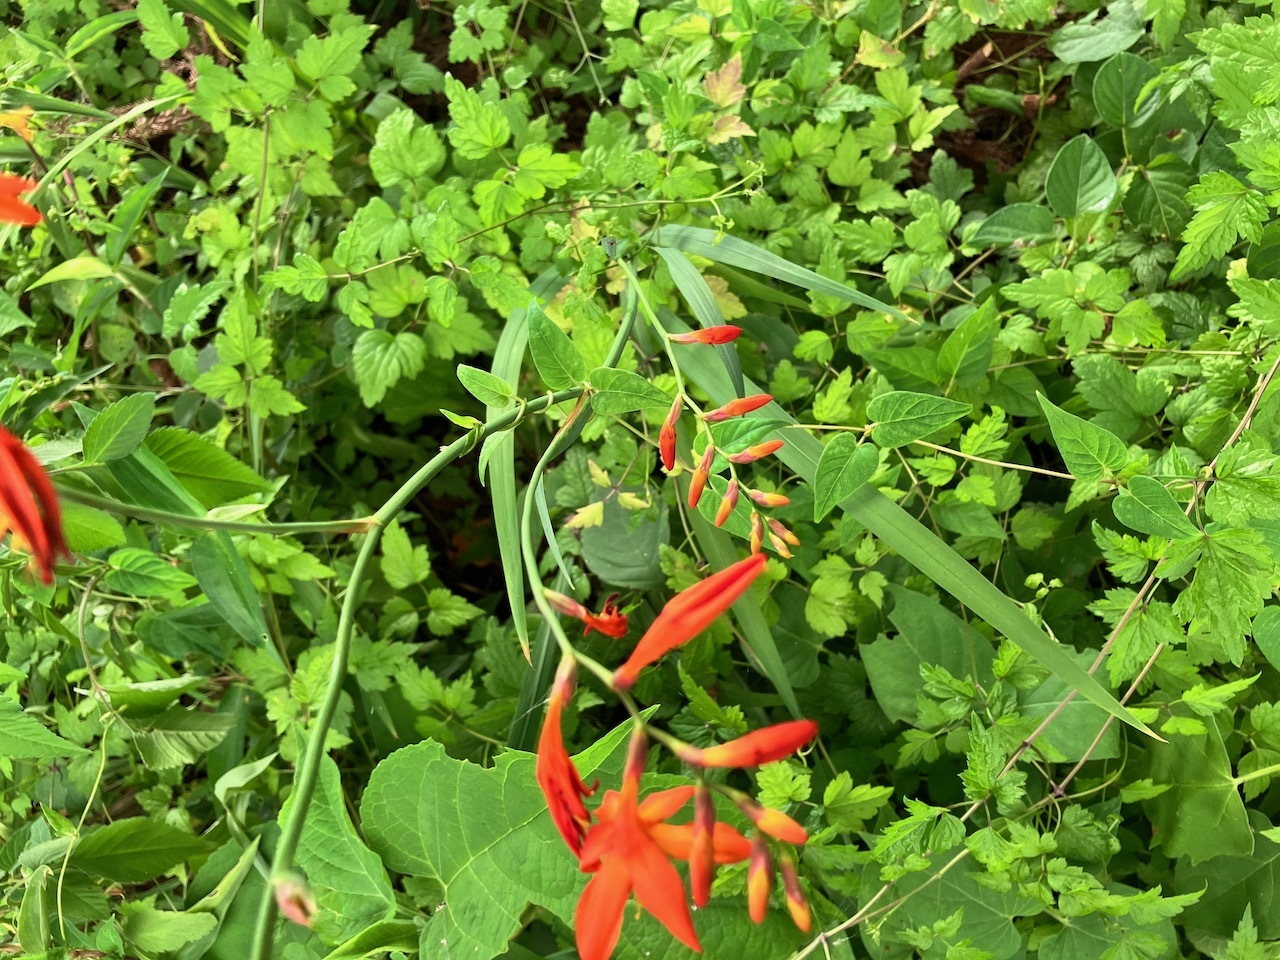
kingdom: Plantae
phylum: Tracheophyta
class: Liliopsida
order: Asparagales
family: Iridaceae
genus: Crocosmia
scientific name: Crocosmia crocosmiiflora
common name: Montbretia
